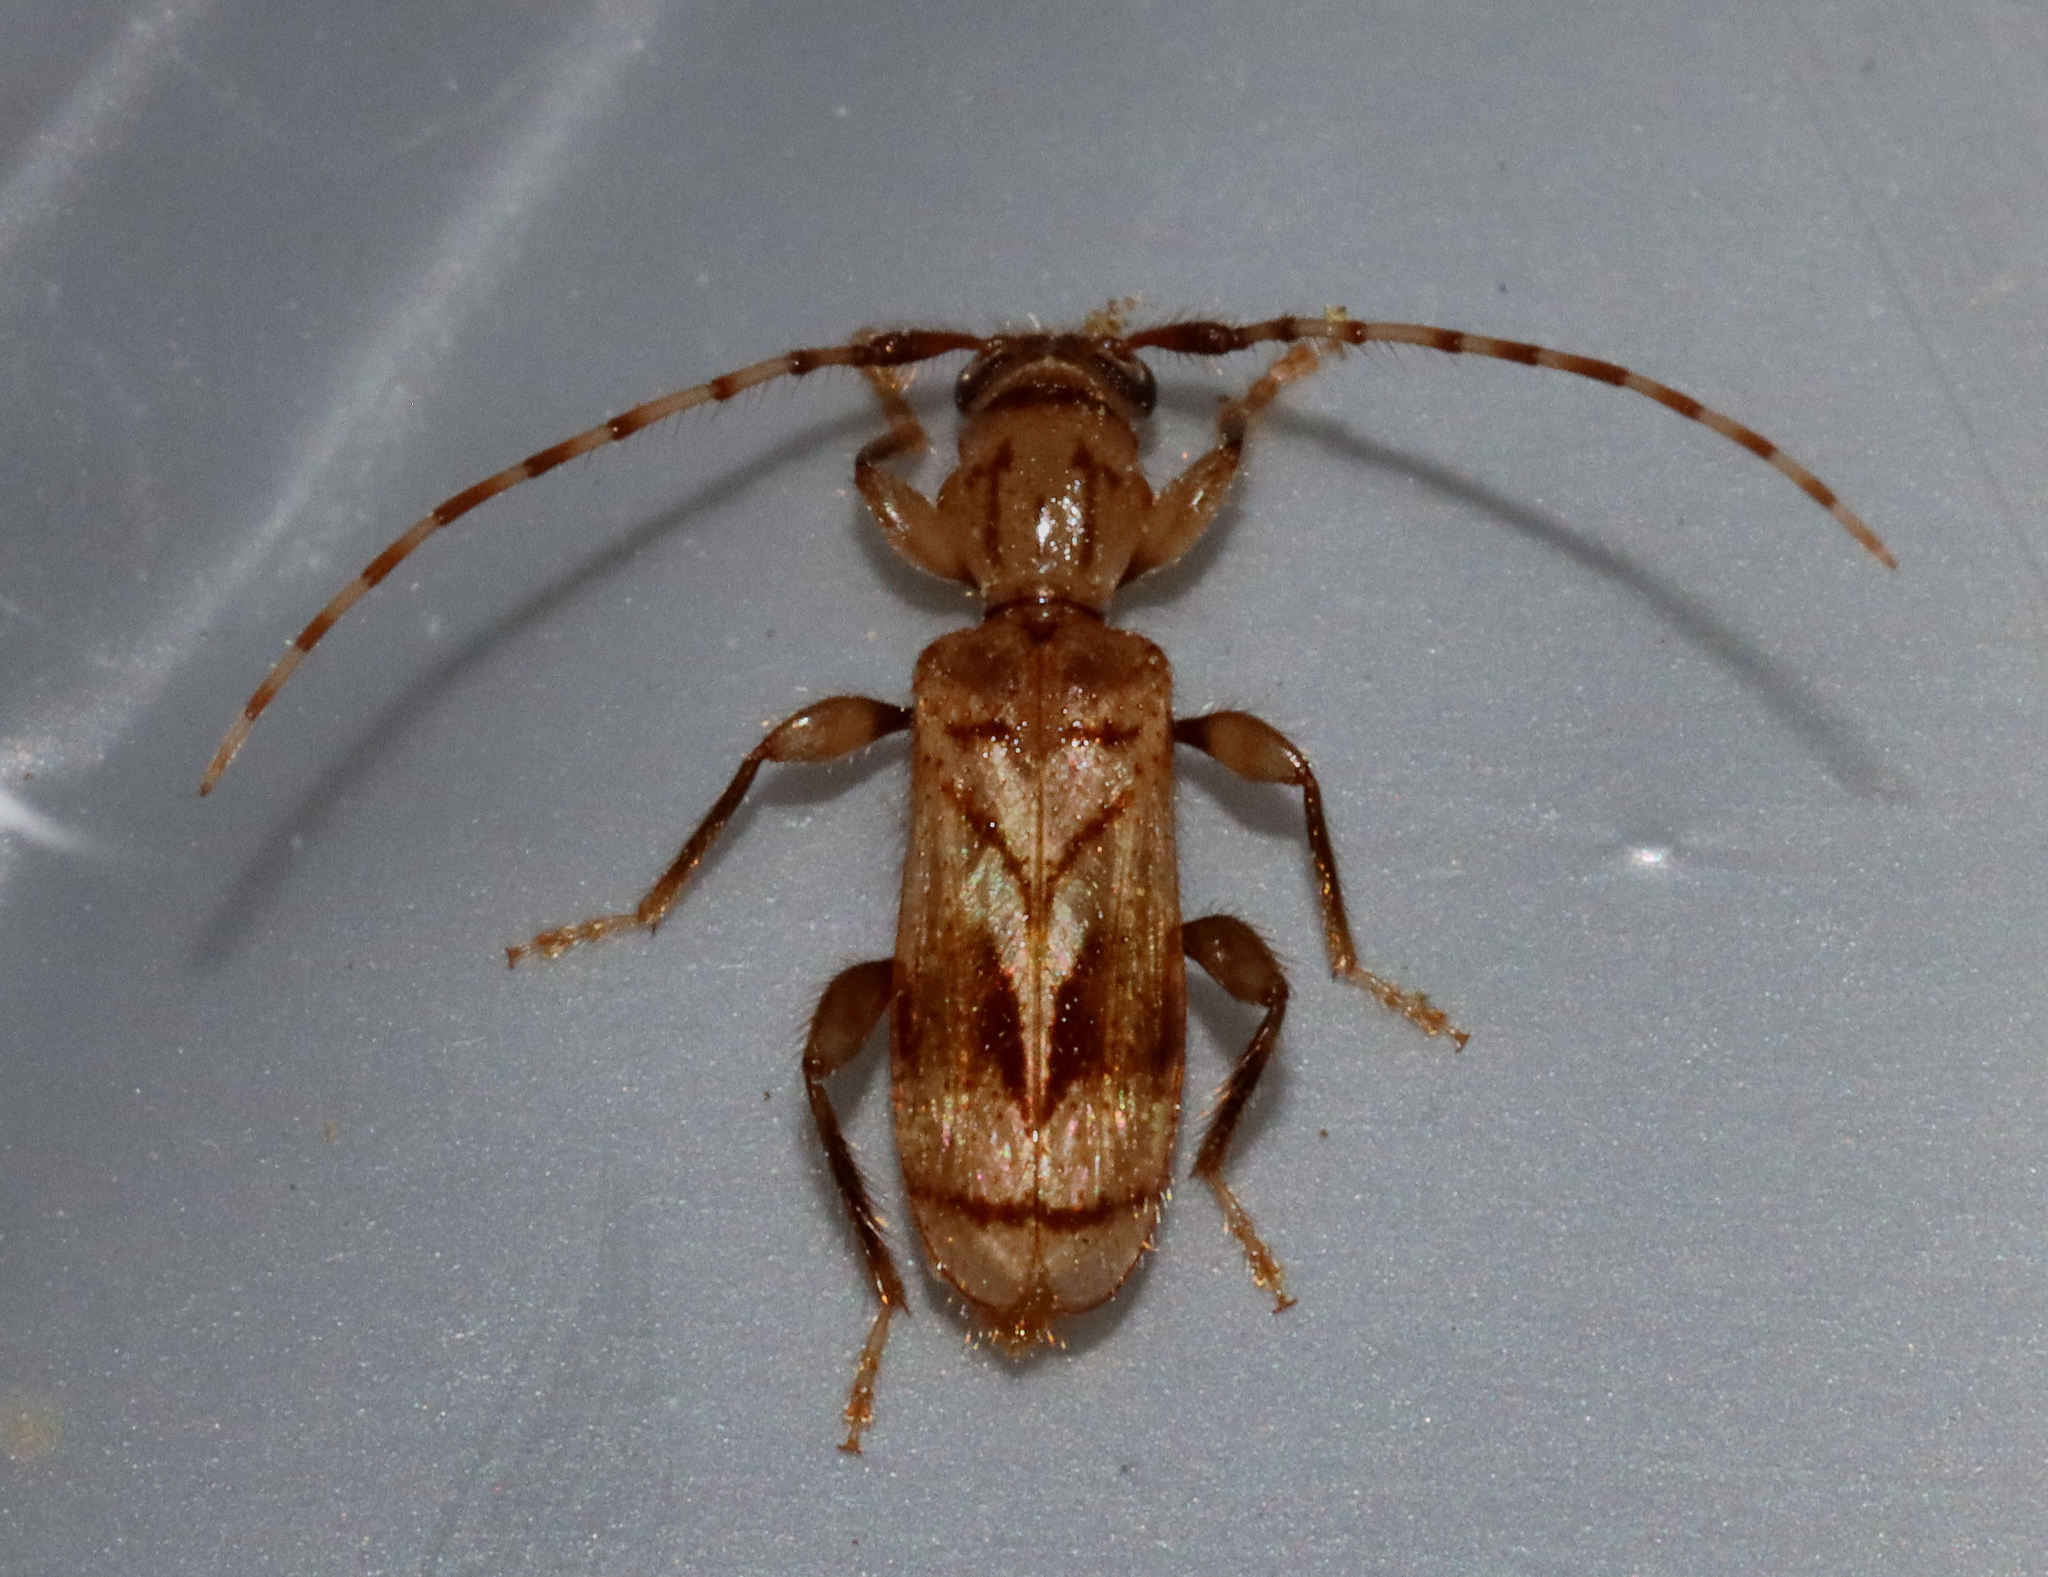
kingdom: Animalia
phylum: Arthropoda
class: Insecta
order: Coleoptera
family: Cerambycidae
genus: Obrium
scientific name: Obrium maculatum
